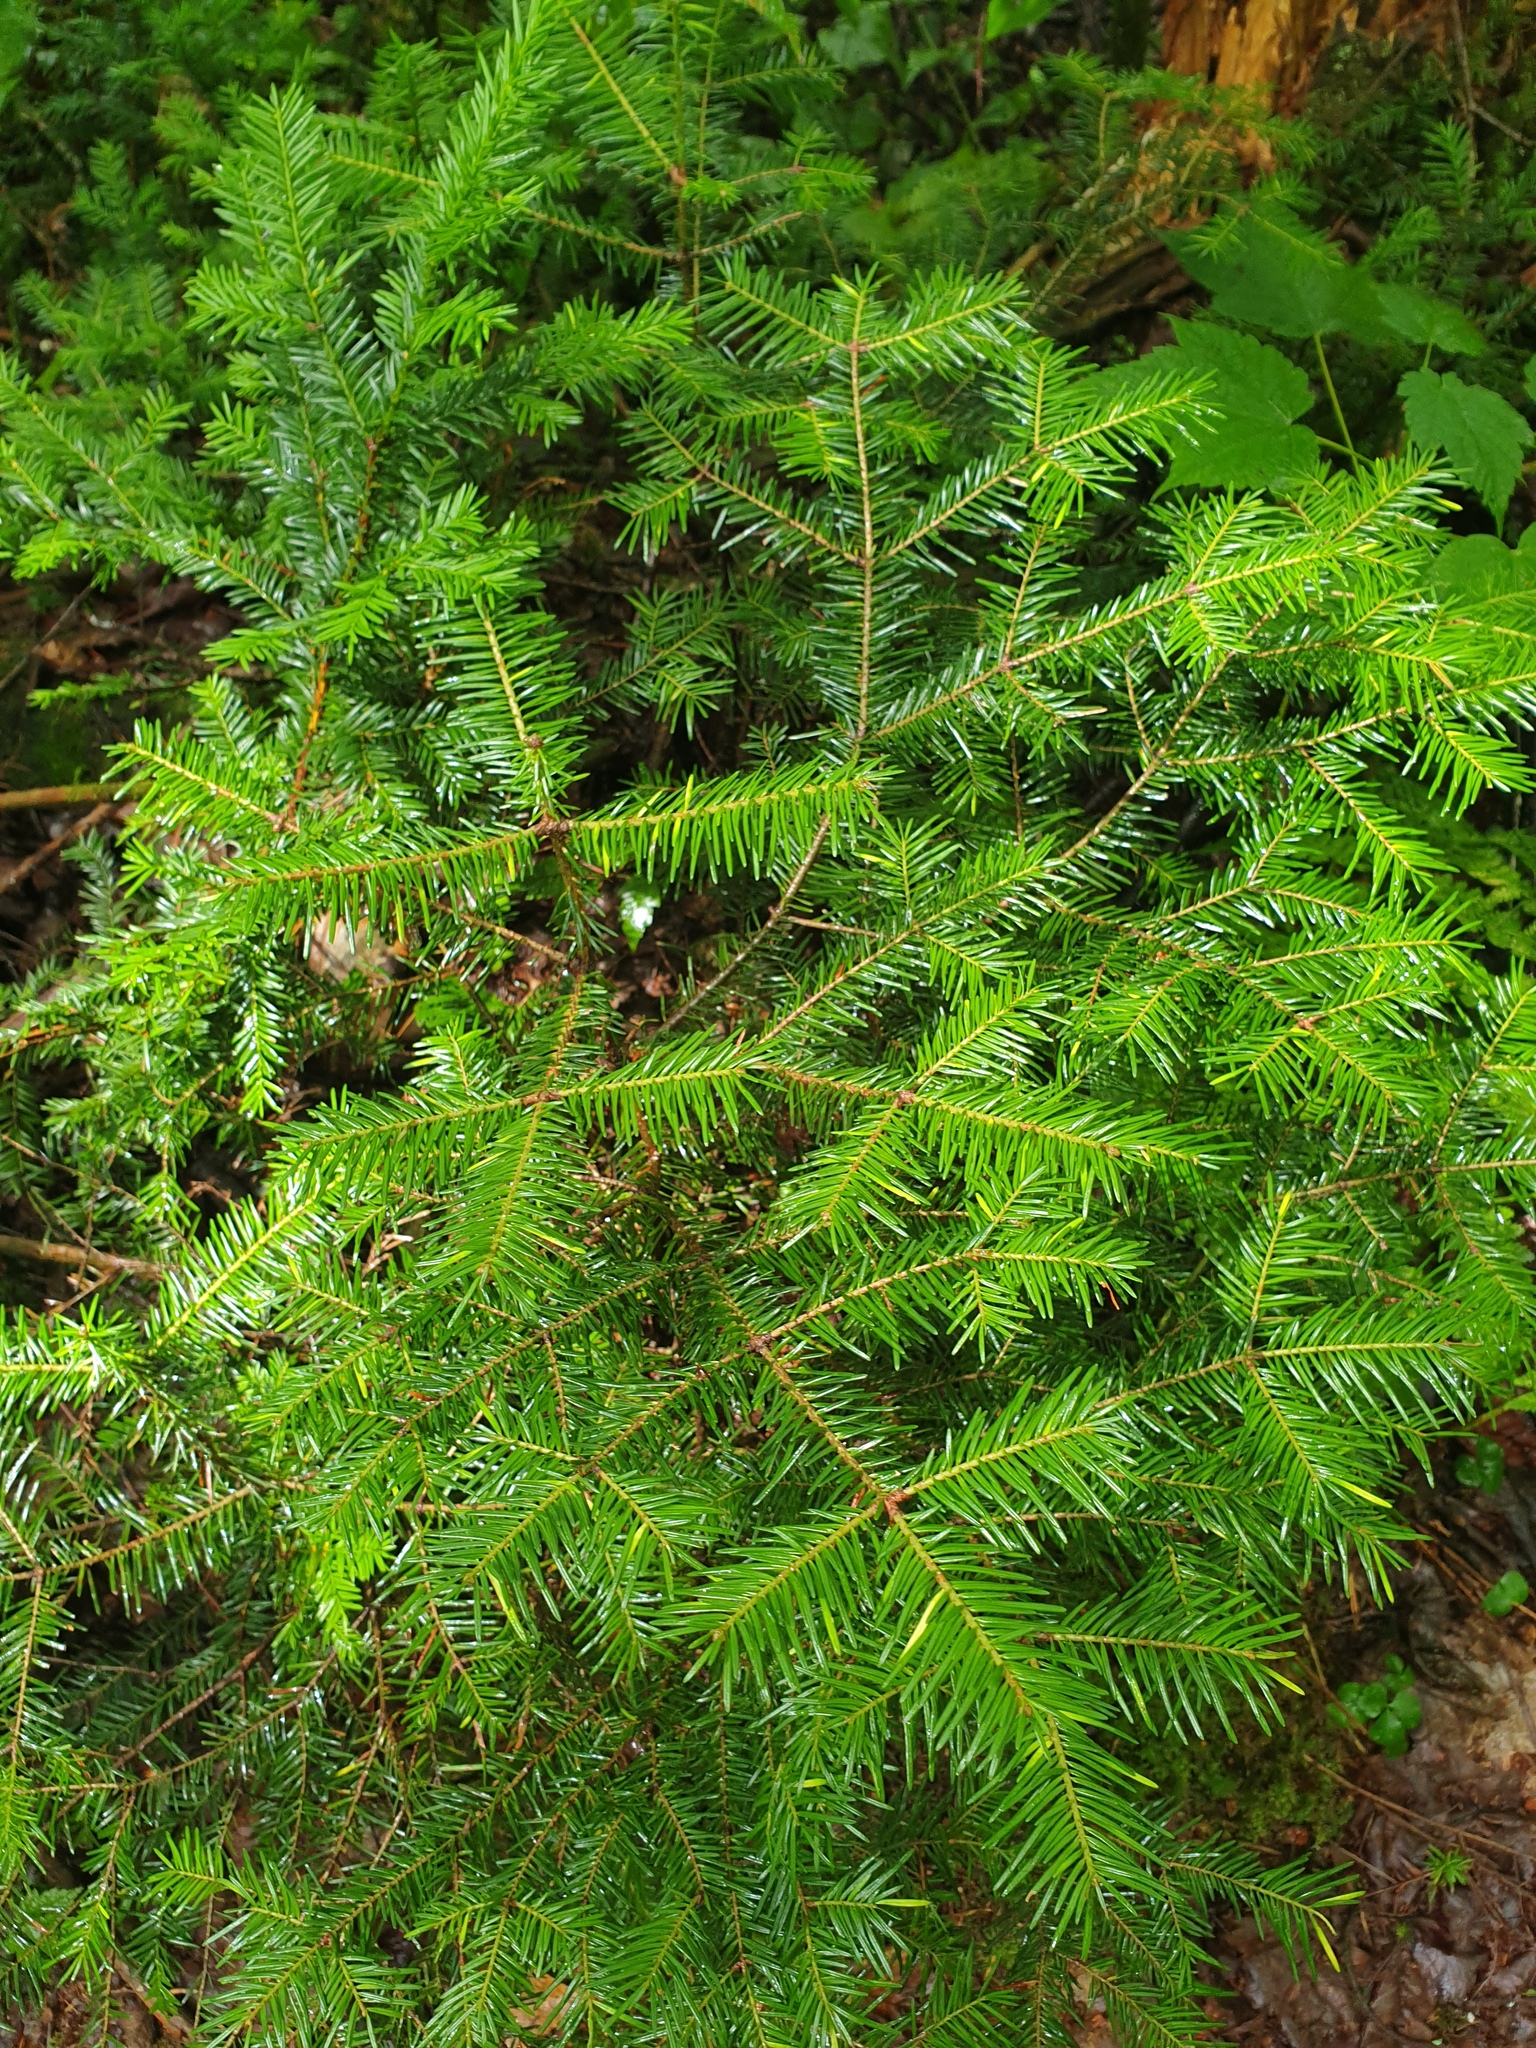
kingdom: Plantae
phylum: Tracheophyta
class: Pinopsida
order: Pinales
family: Pinaceae
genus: Abies
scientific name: Abies balsamea
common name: Balsam fir
